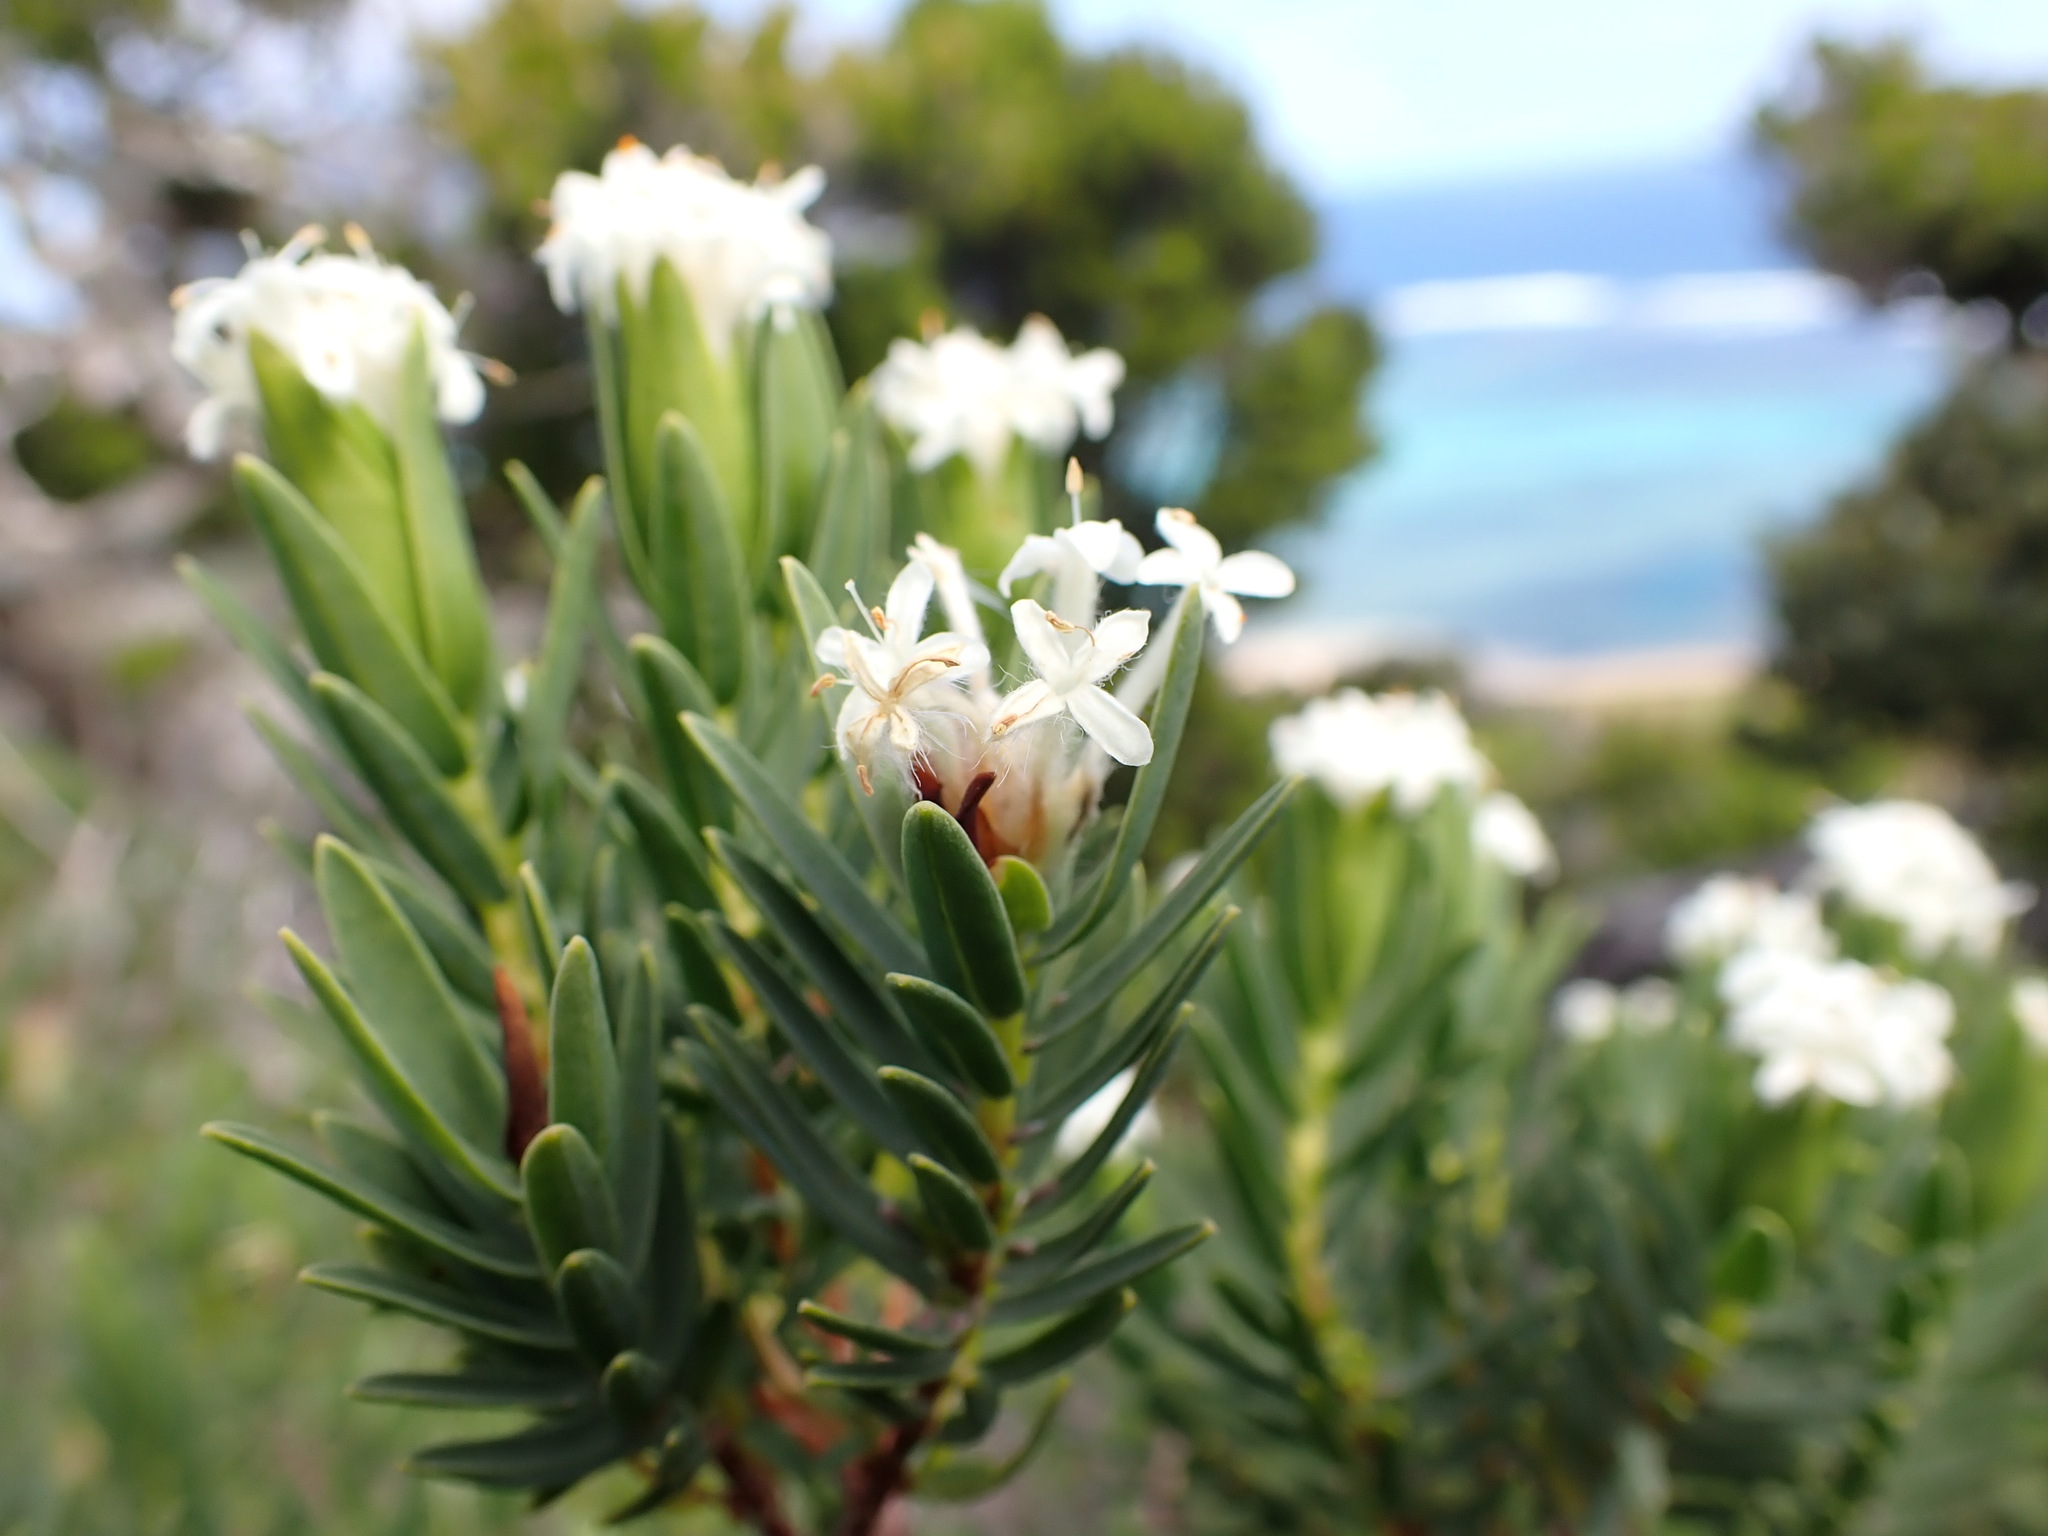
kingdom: Plantae
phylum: Tracheophyta
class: Magnoliopsida
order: Malvales
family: Thymelaeaceae
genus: Pimelea
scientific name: Pimelea congesta
